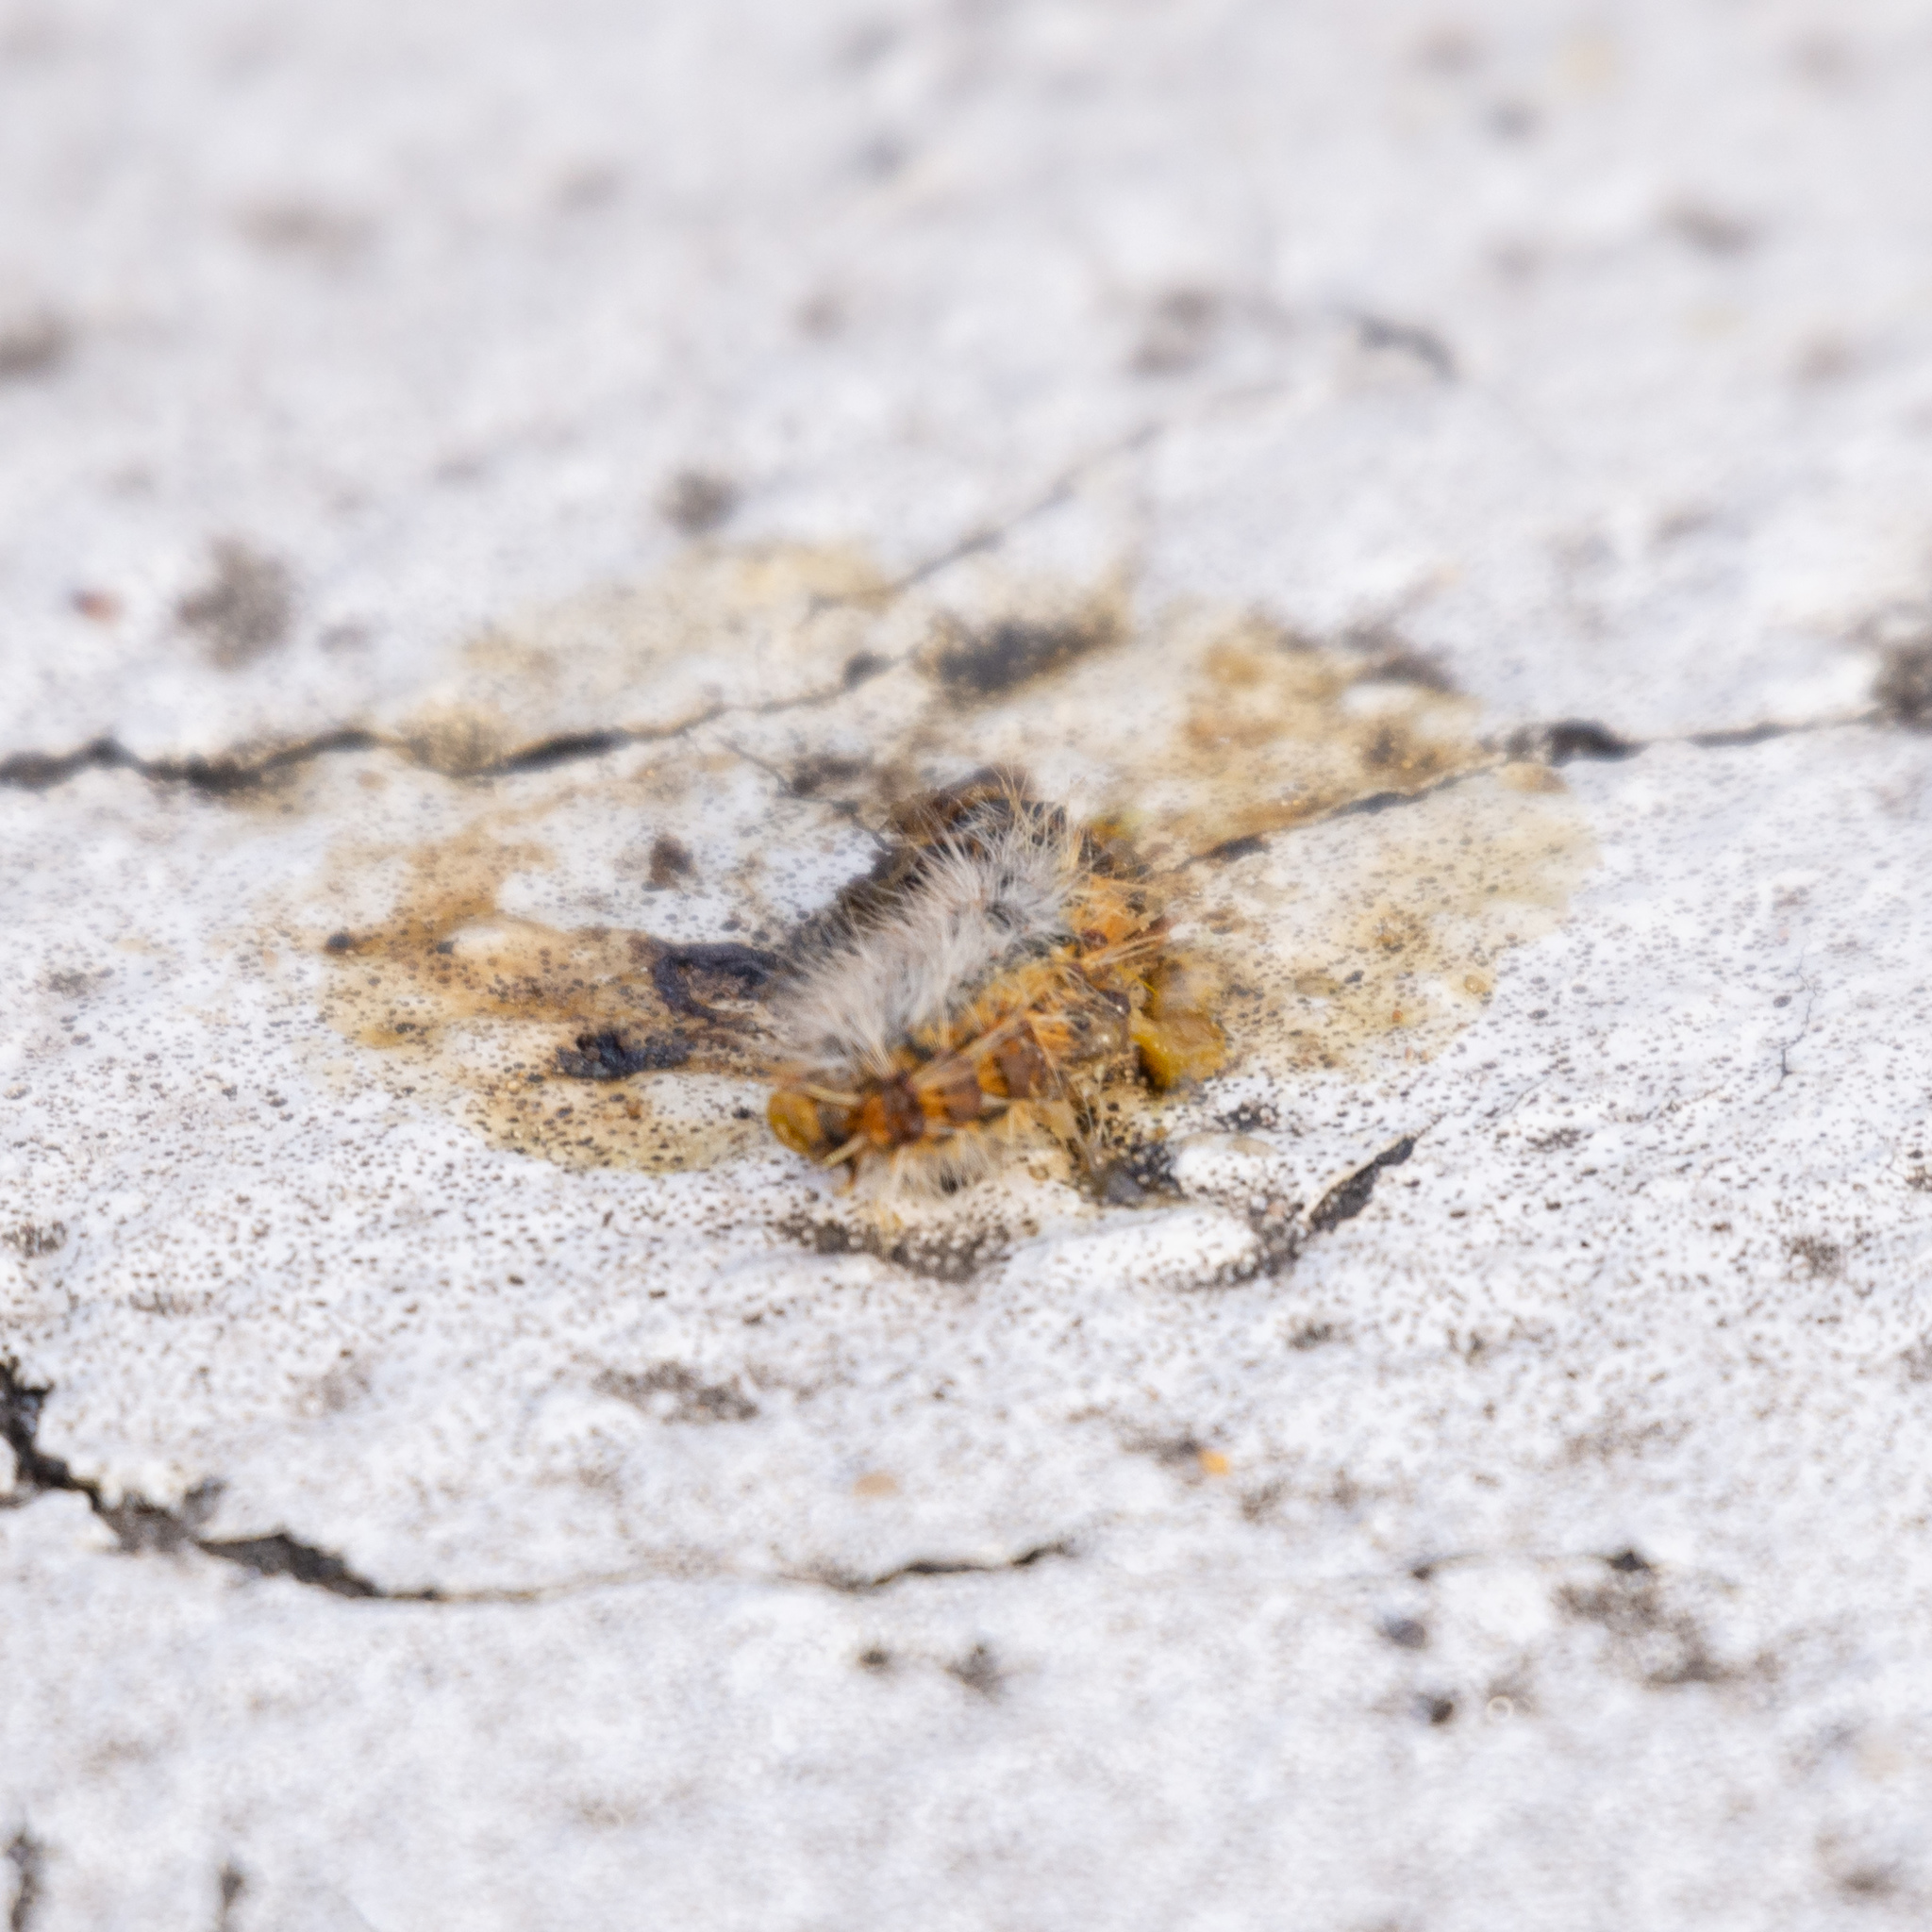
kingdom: Animalia
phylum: Arthropoda
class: Insecta
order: Lepidoptera
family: Notodontidae
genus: Thaumetopoea
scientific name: Thaumetopoea pityocampa
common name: Pine processionary
